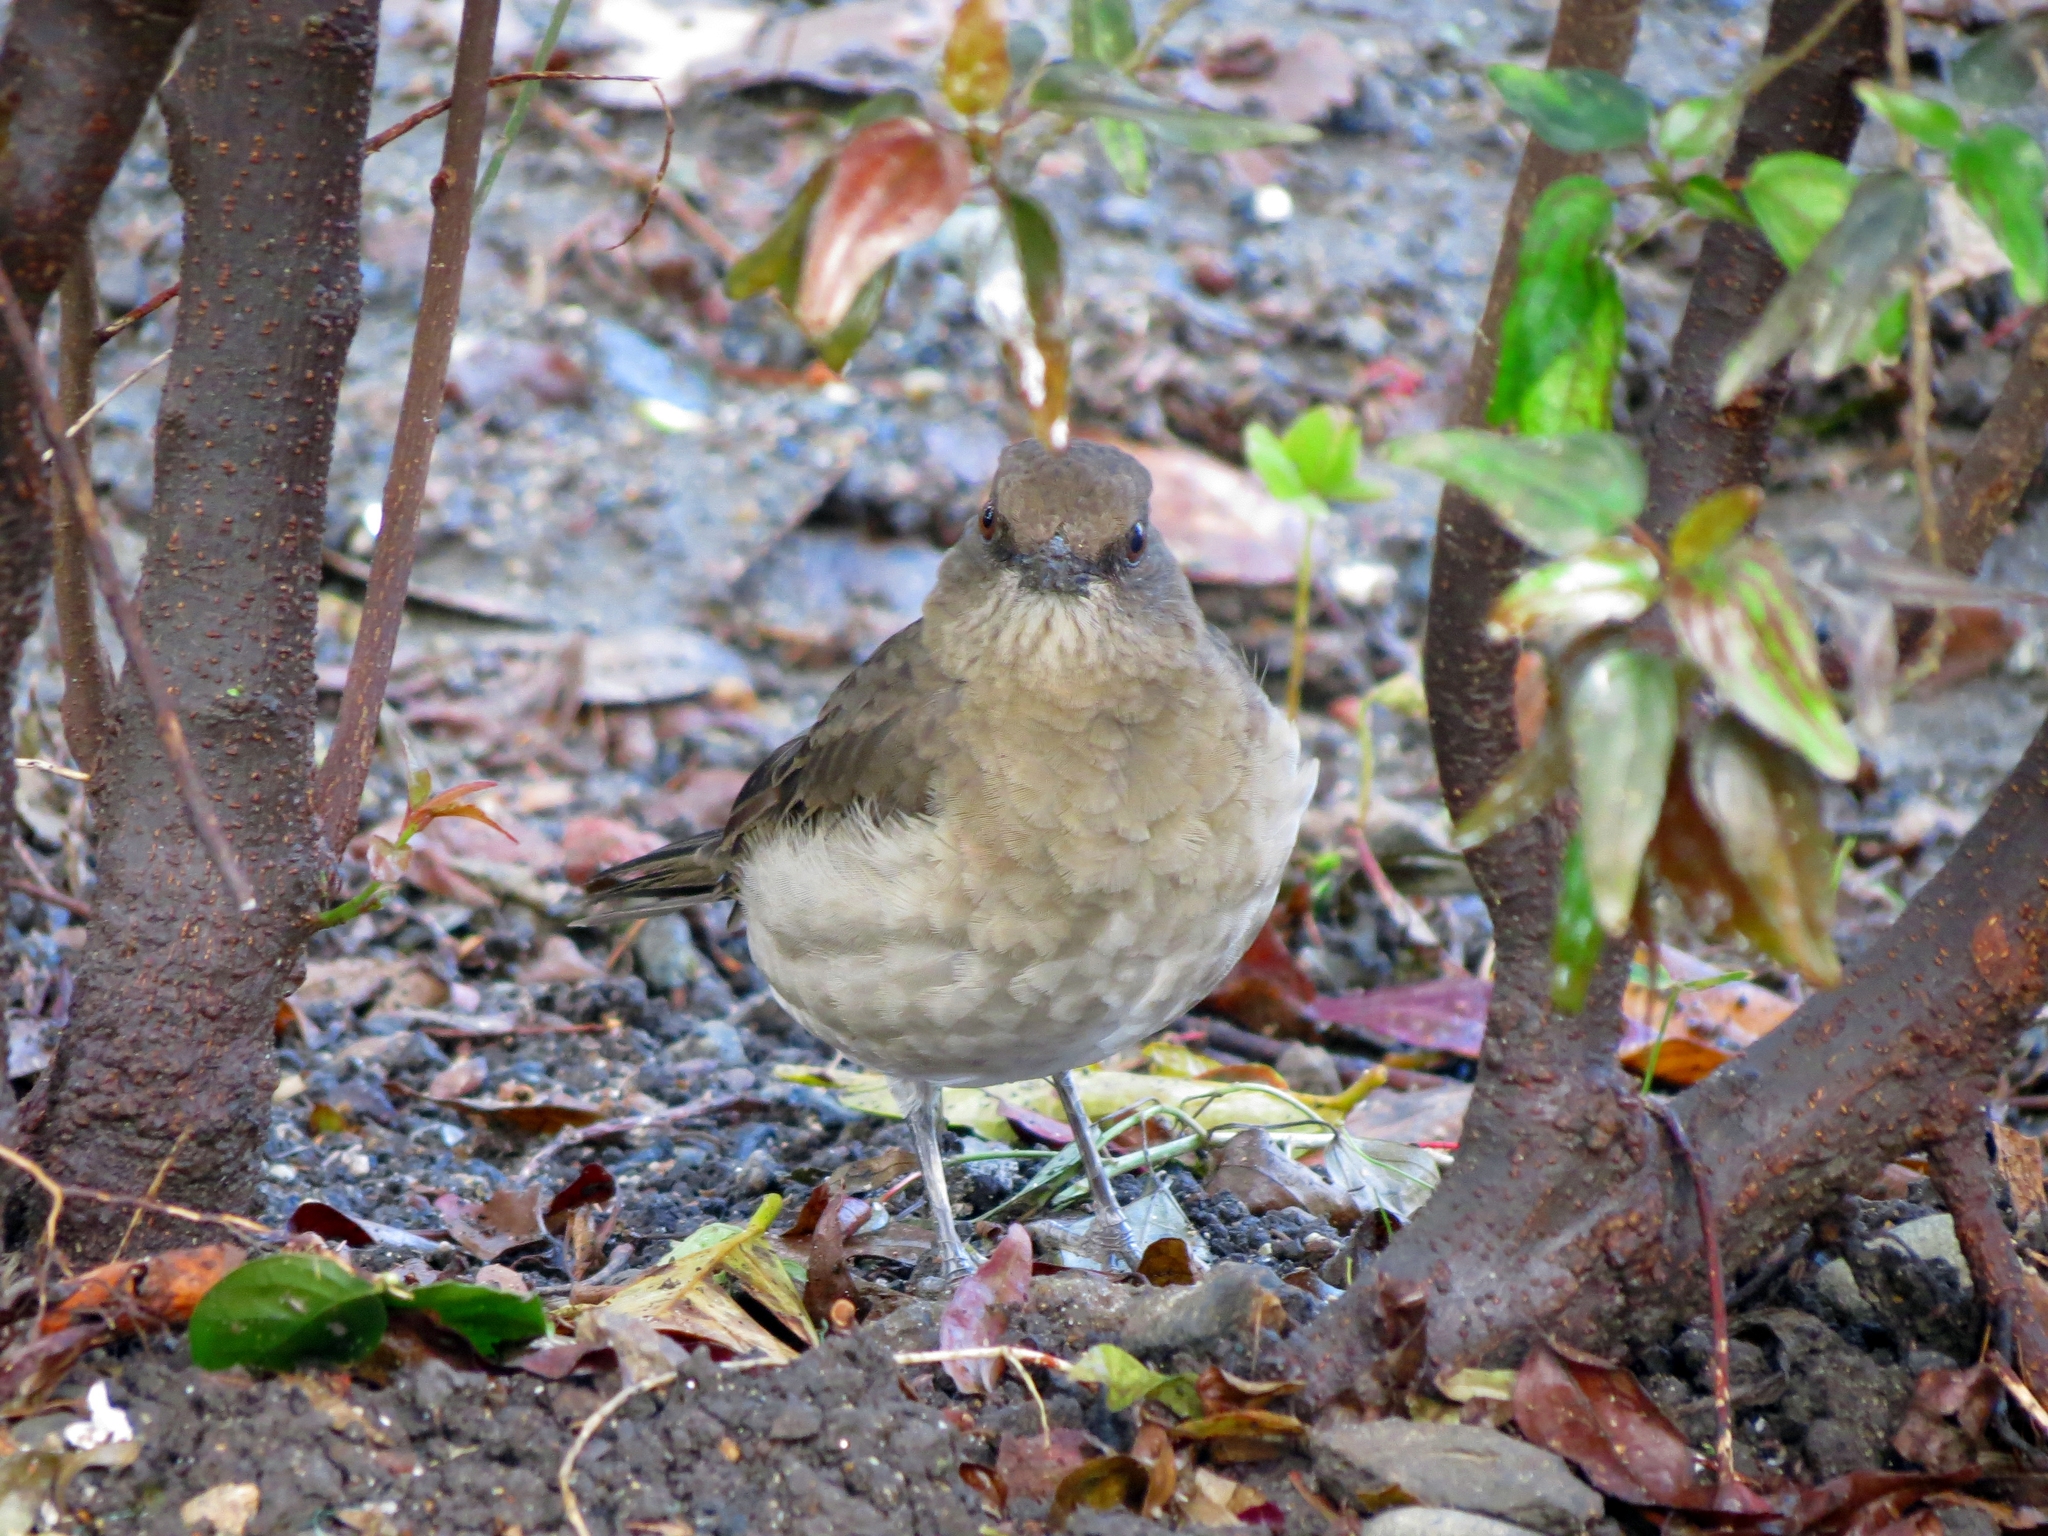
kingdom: Animalia
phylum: Chordata
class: Aves
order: Passeriformes
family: Turdidae
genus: Turdus
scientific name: Turdus ignobilis
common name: Black-billed thrush
